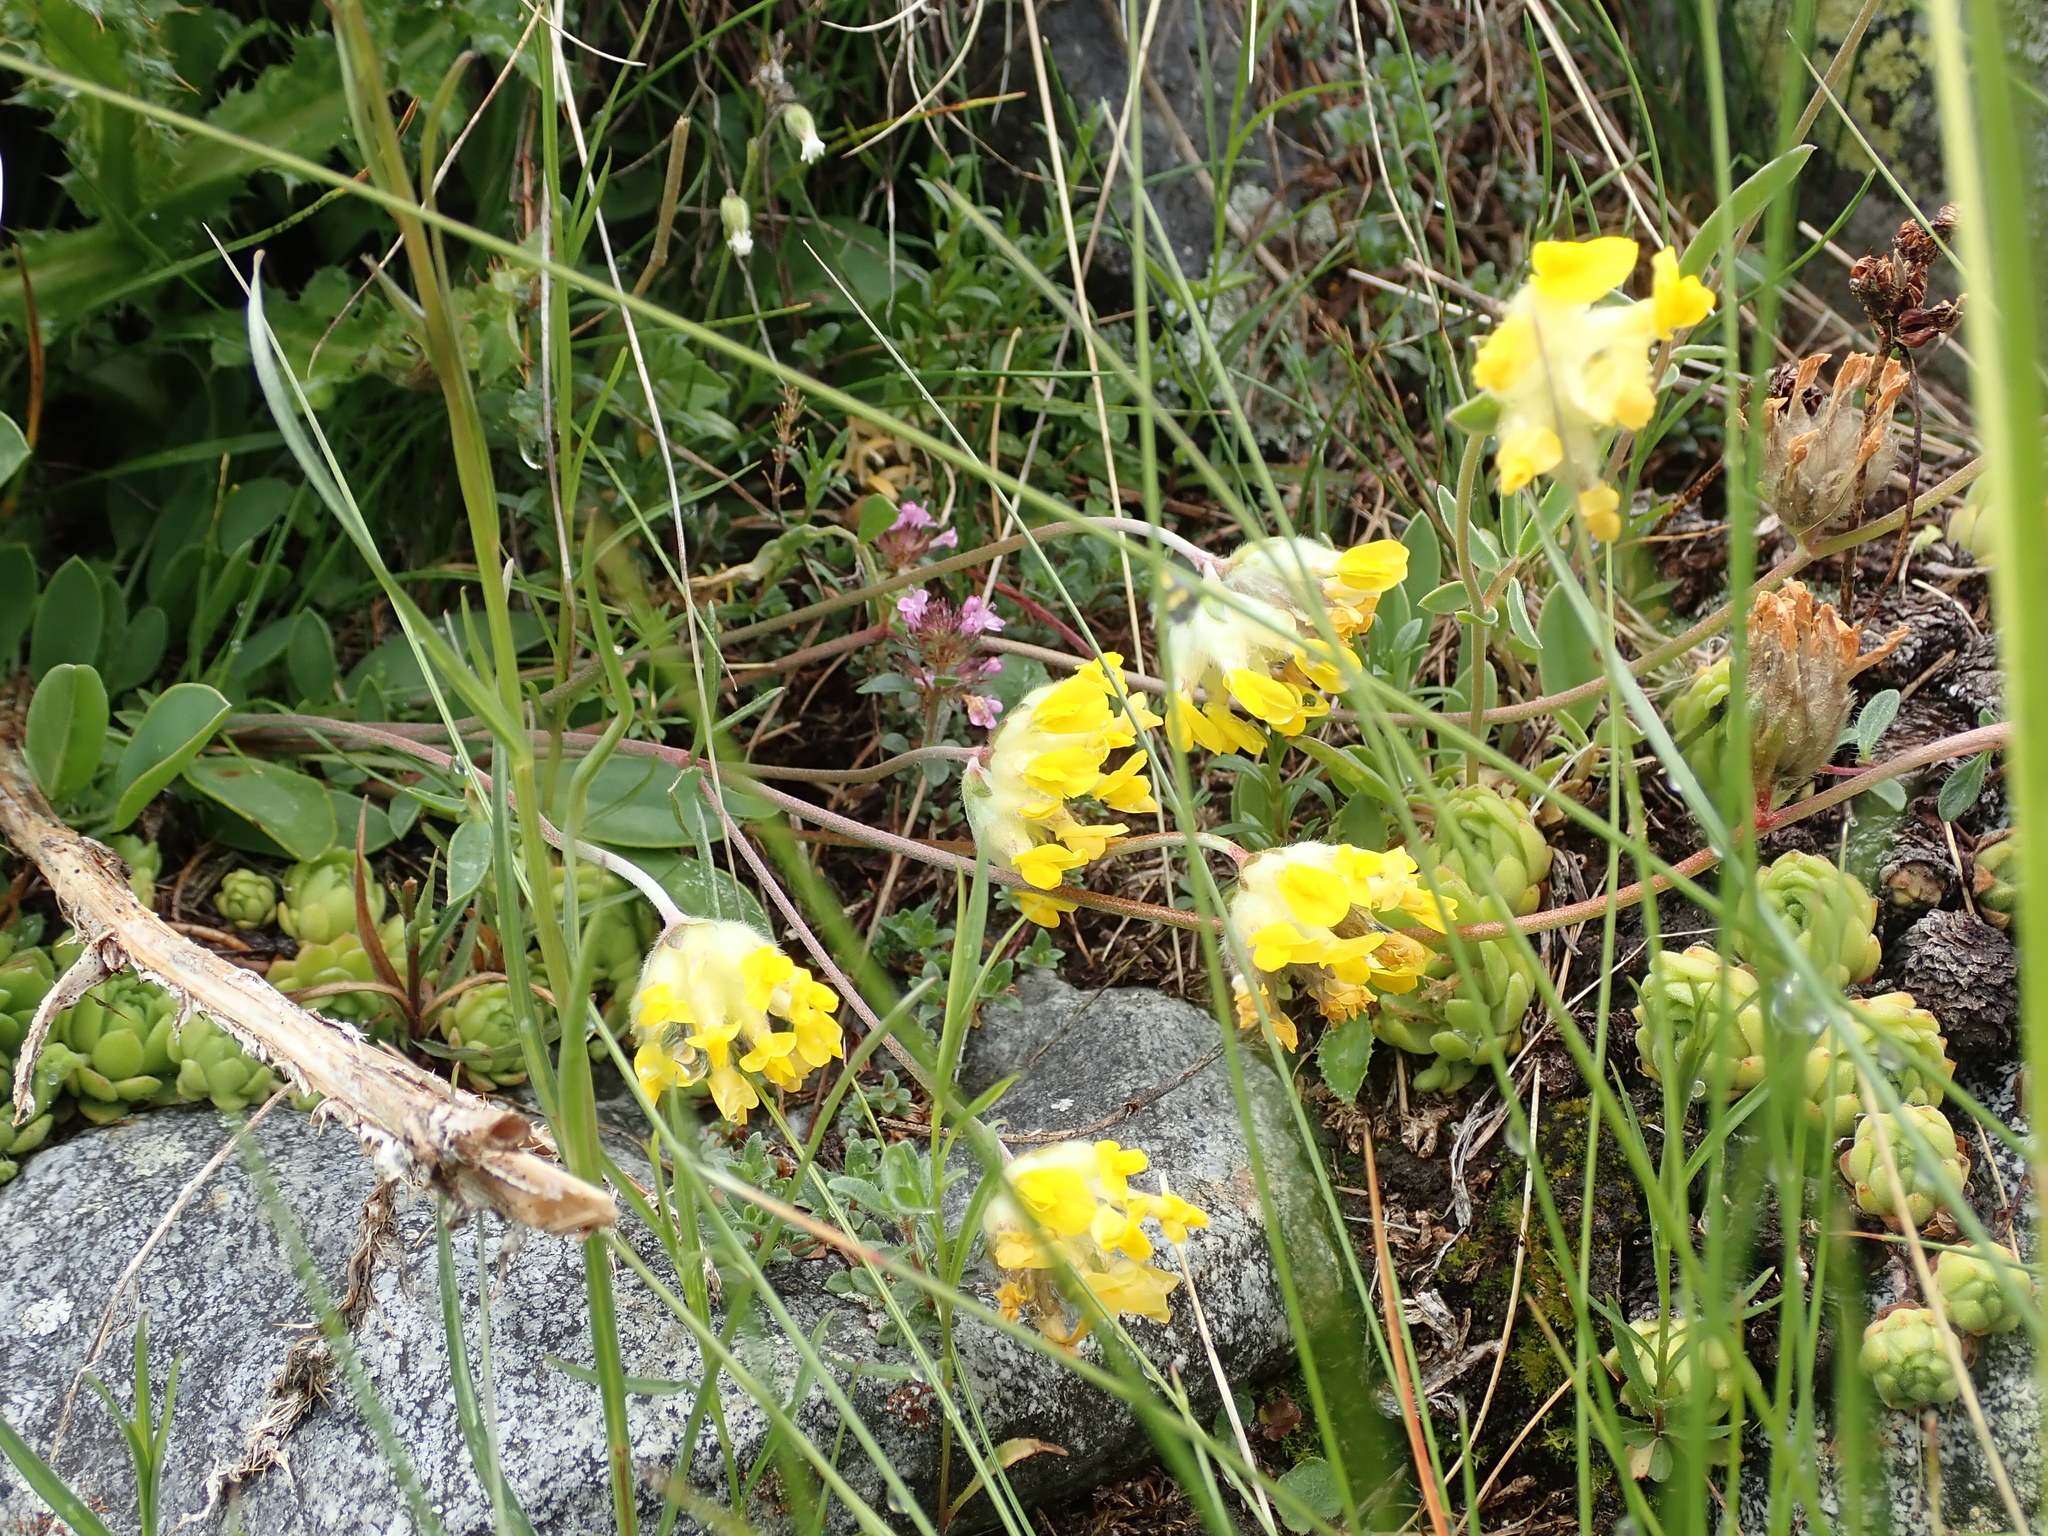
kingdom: Plantae
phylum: Tracheophyta
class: Magnoliopsida
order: Fabales
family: Fabaceae
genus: Anthyllis
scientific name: Anthyllis vulneraria
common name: Kidney vetch
